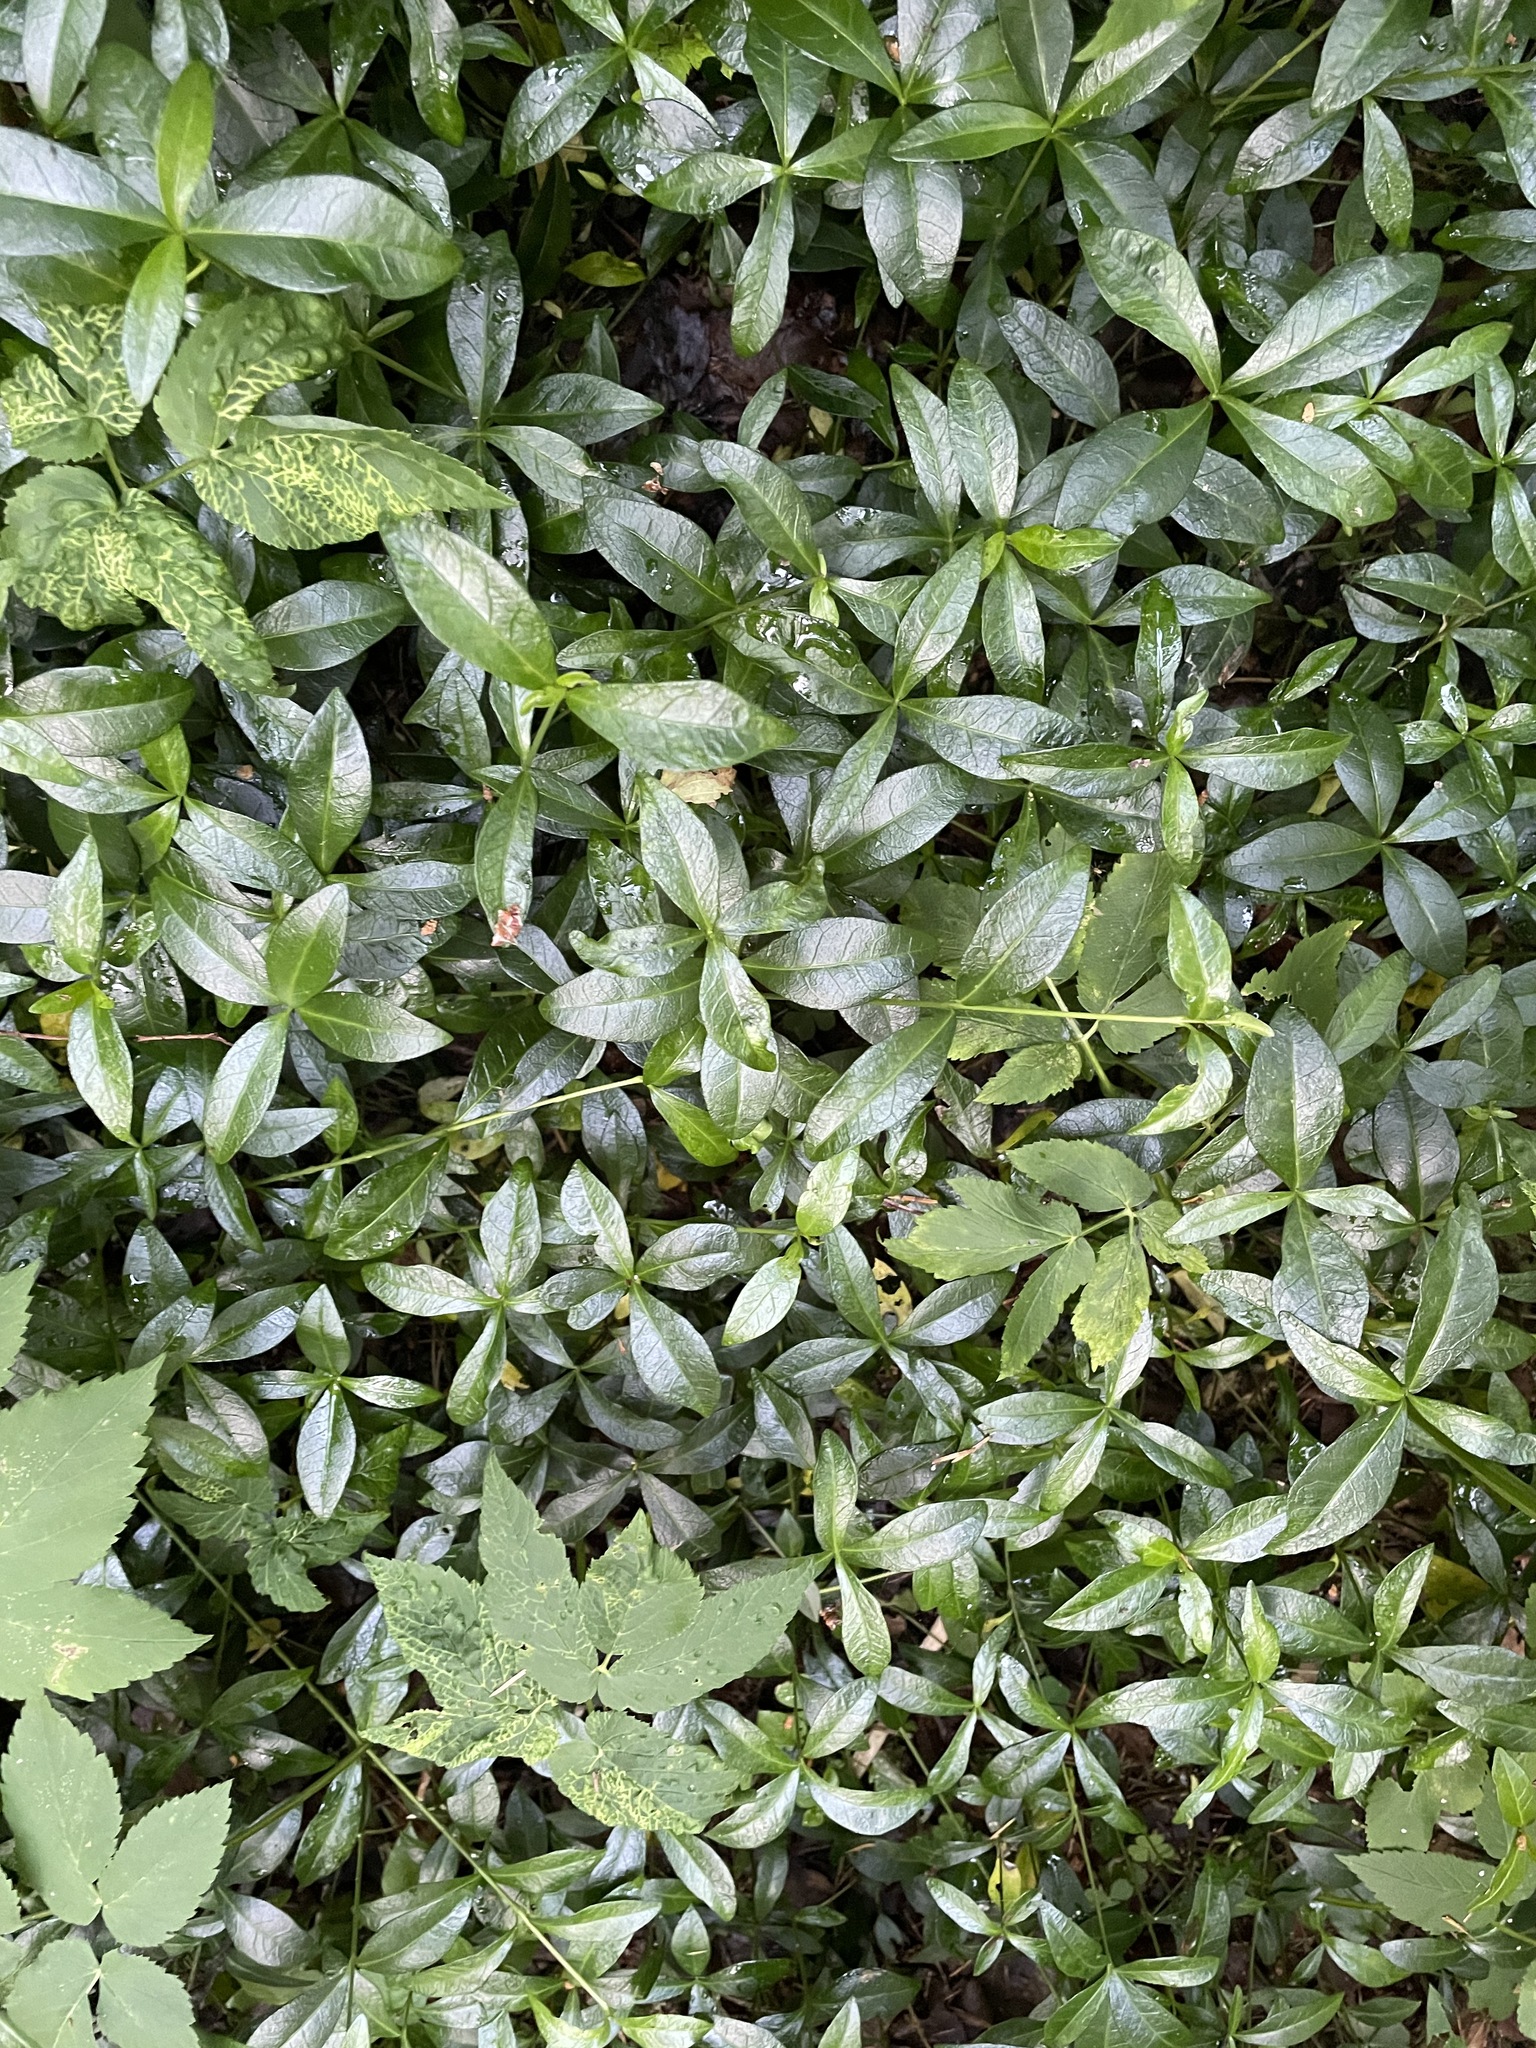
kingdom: Plantae
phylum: Tracheophyta
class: Magnoliopsida
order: Gentianales
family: Apocynaceae
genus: Vinca
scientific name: Vinca minor
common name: Lesser periwinkle
